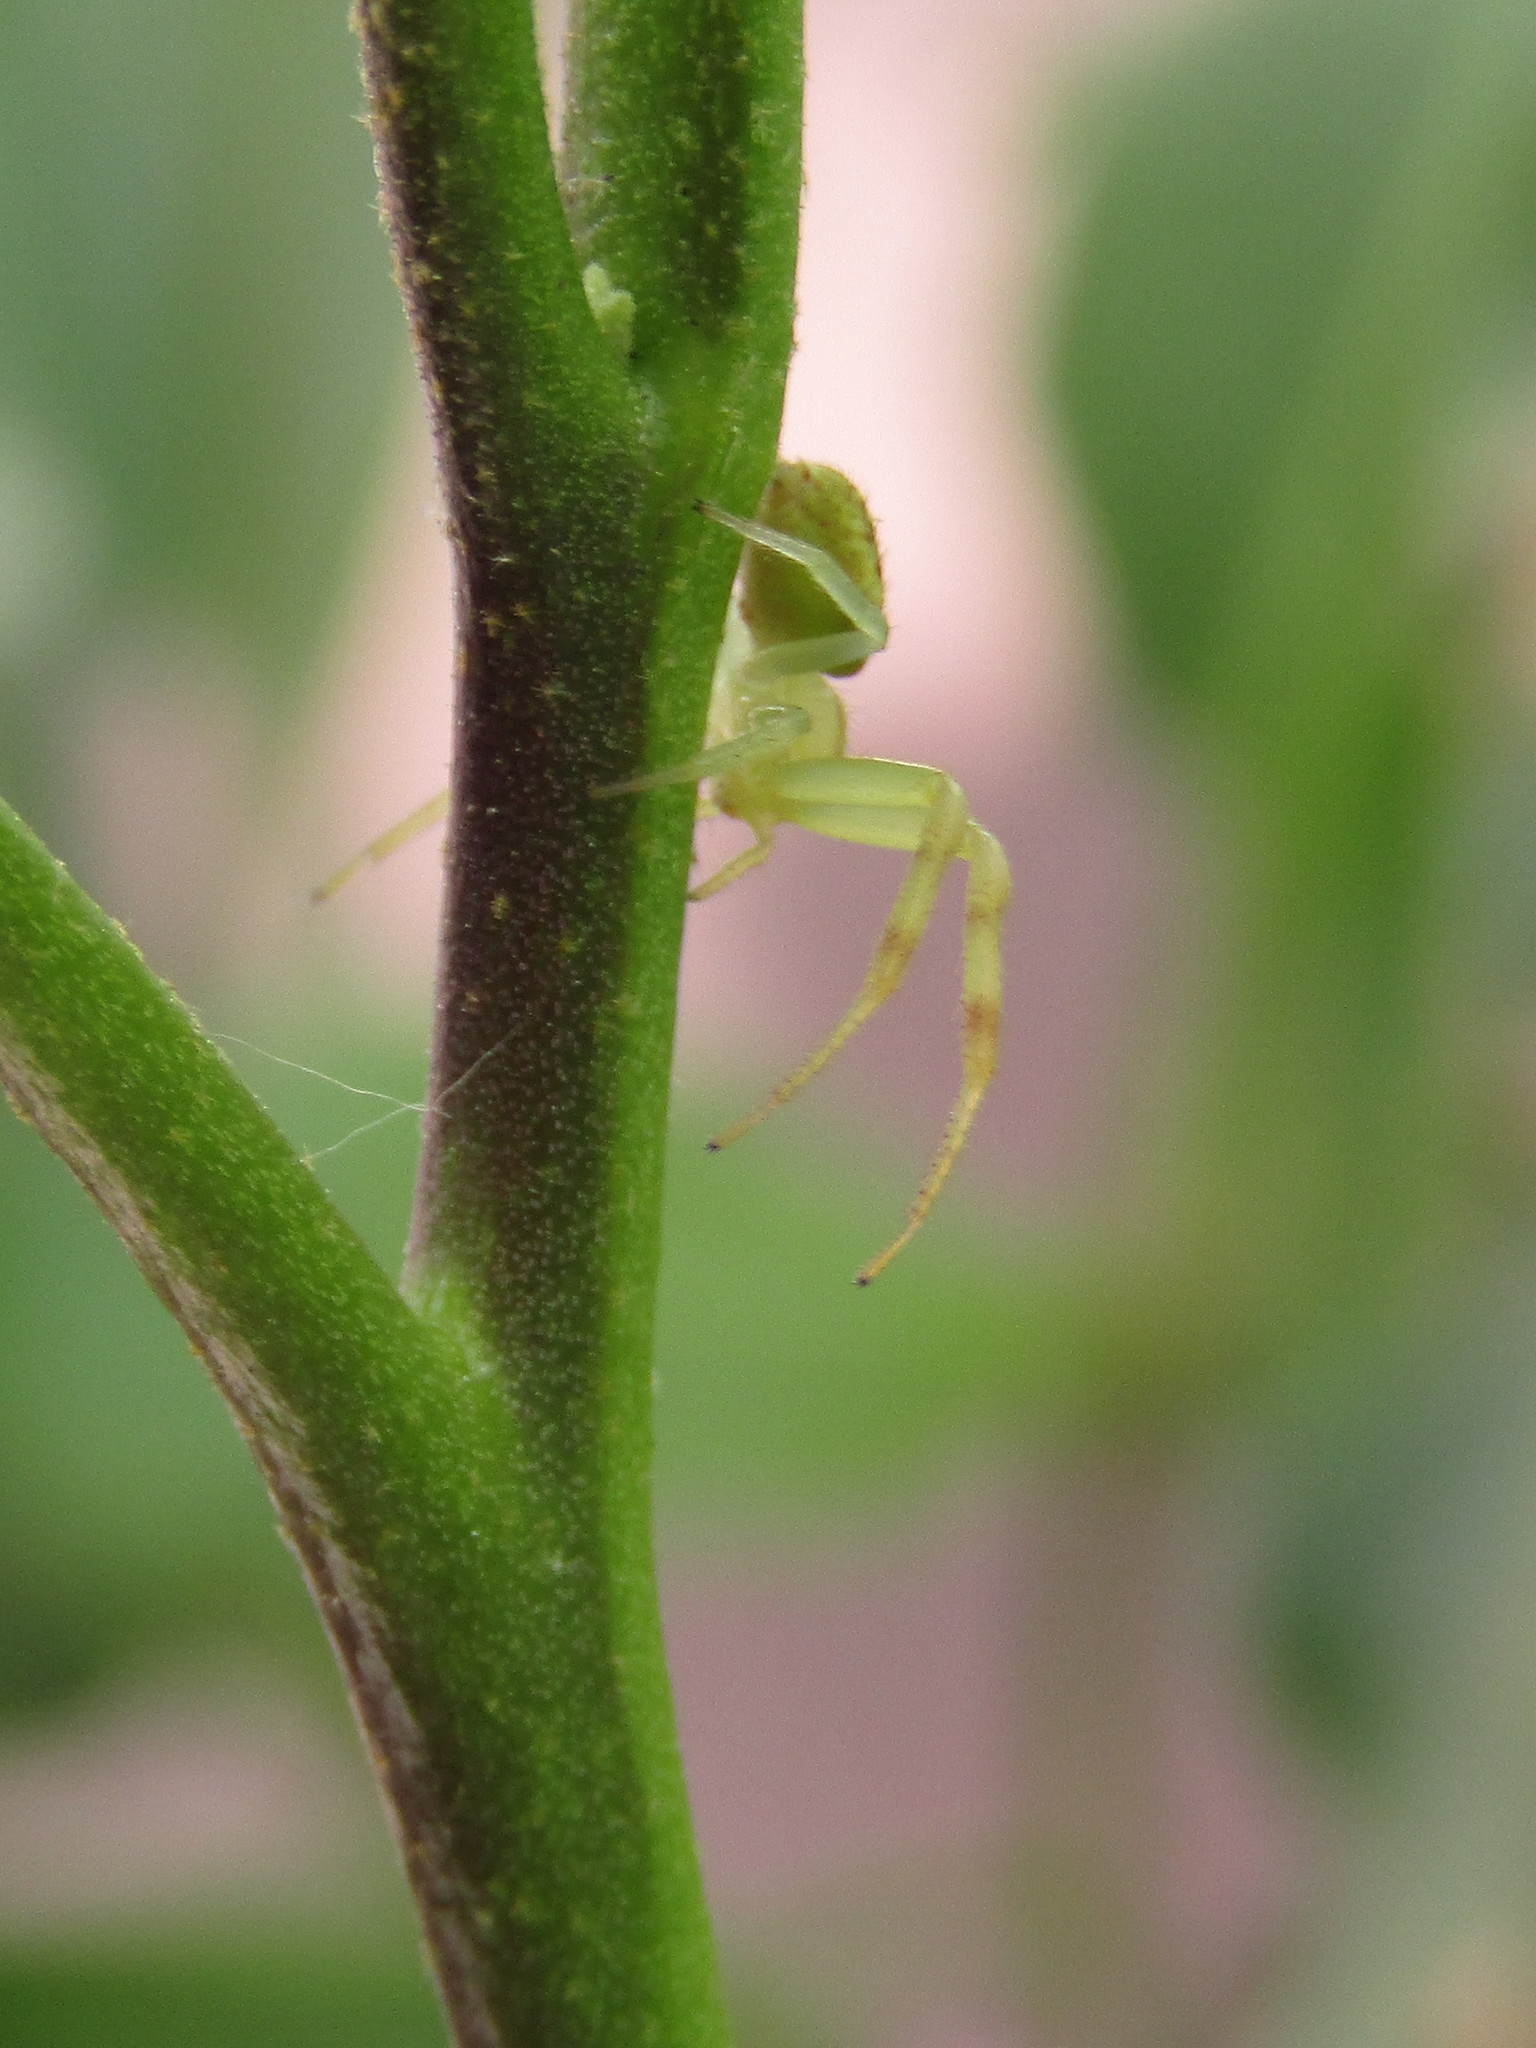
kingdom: Animalia
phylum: Arthropoda
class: Arachnida
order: Araneae
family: Thomisidae
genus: Misumenops
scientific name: Misumenops
